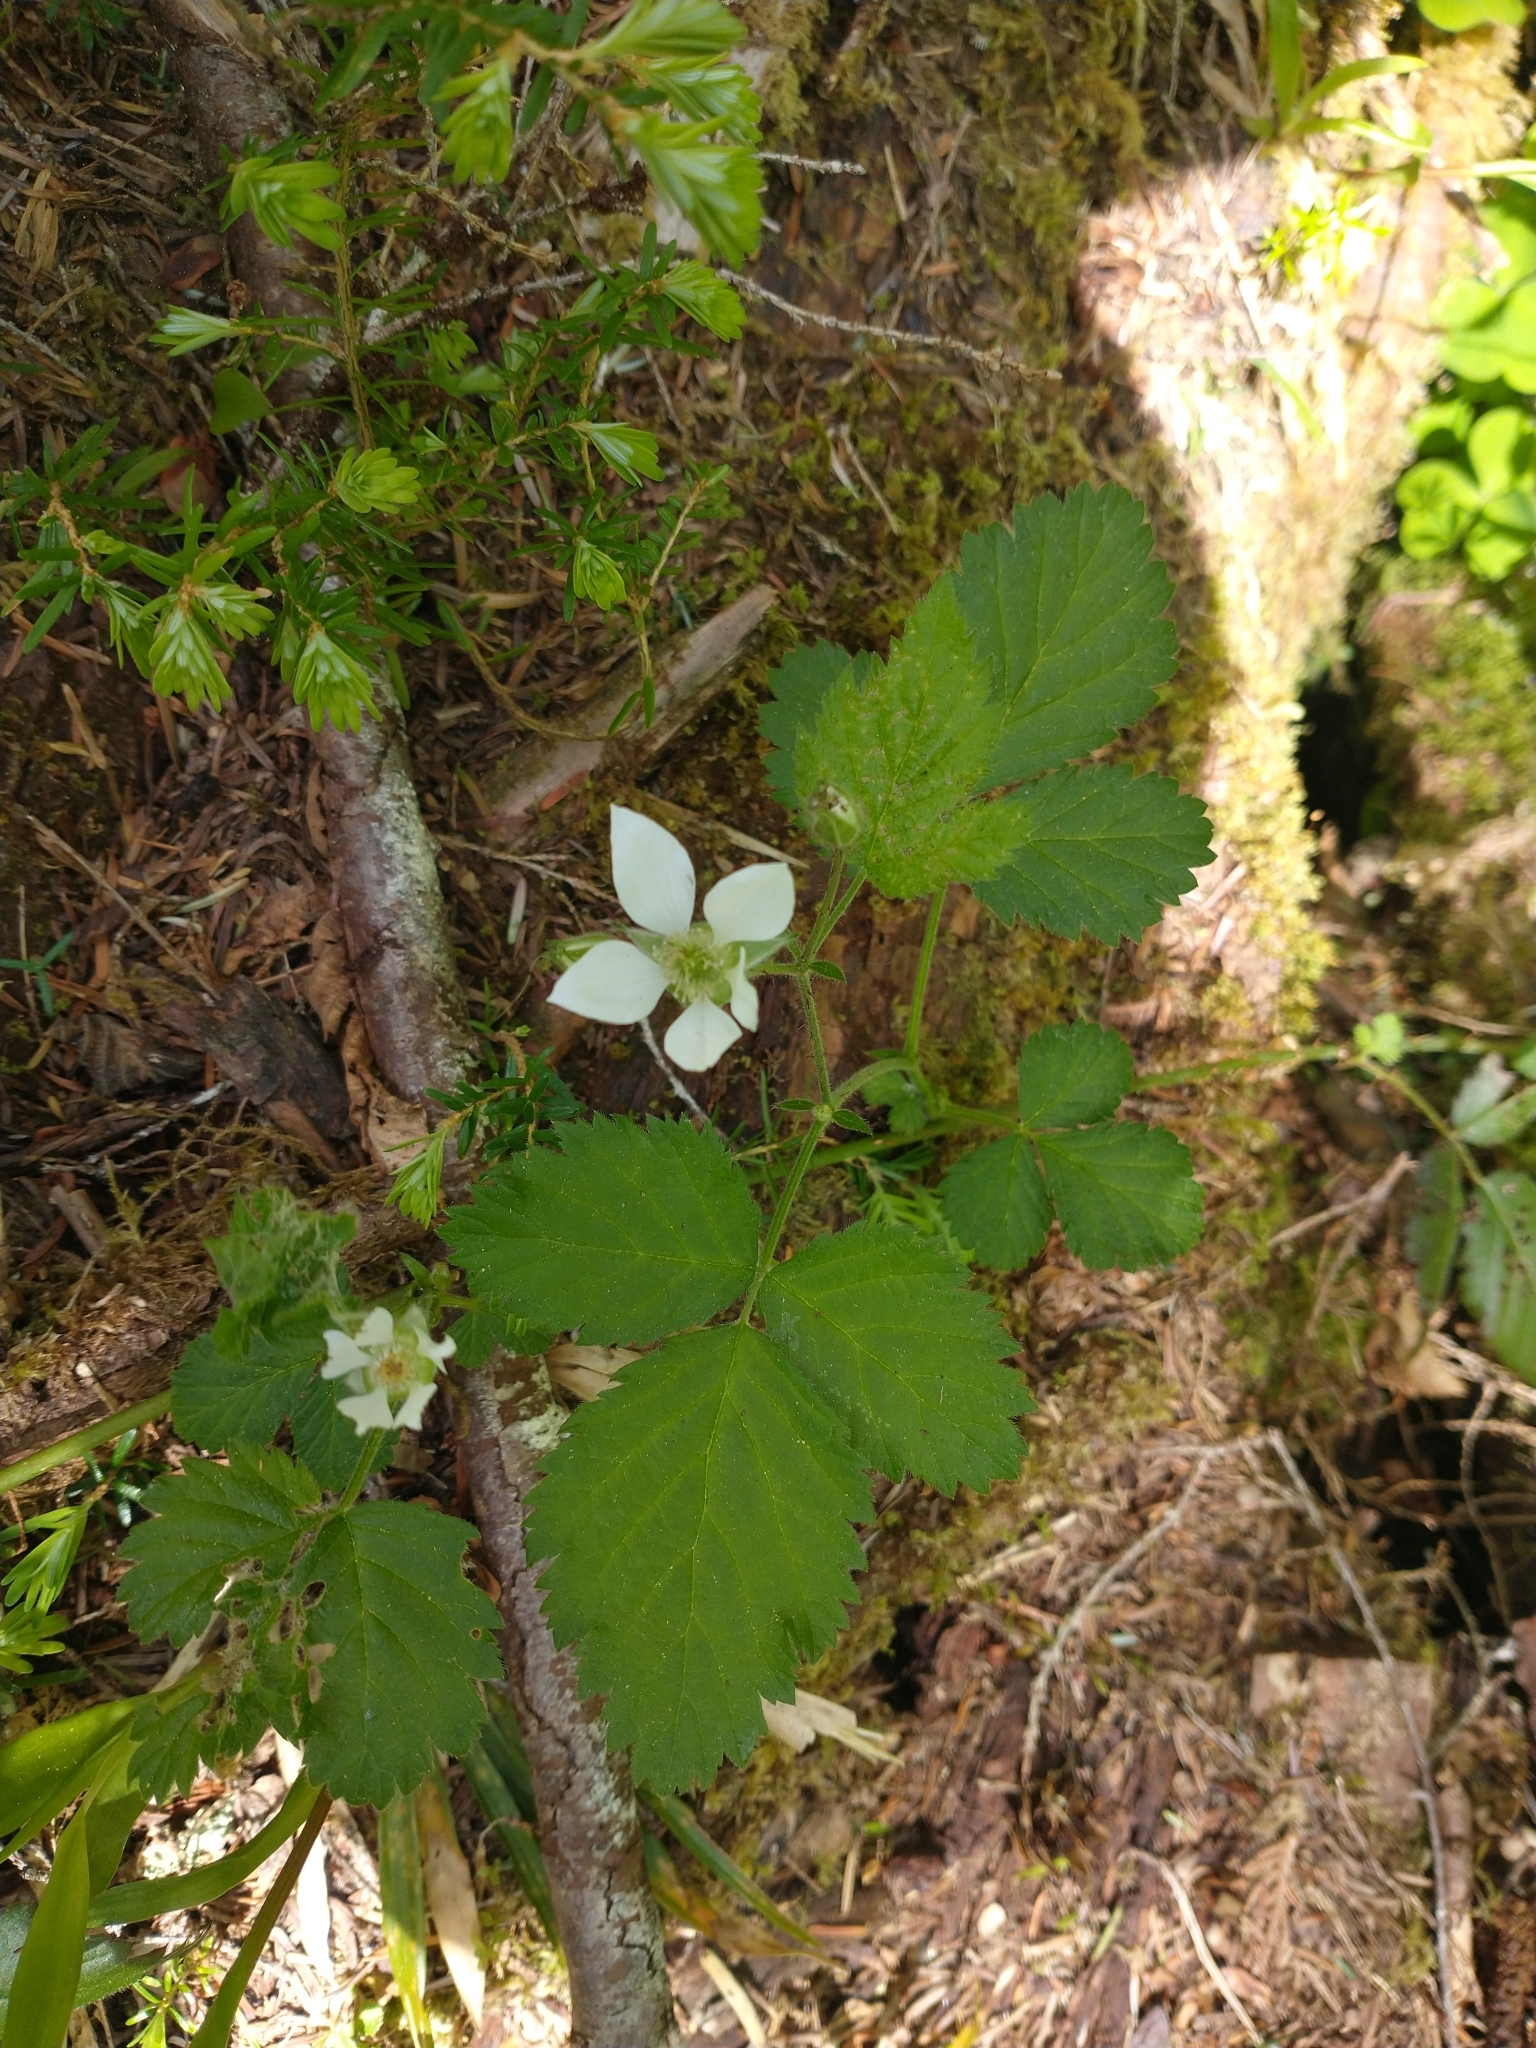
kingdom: Plantae
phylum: Tracheophyta
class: Magnoliopsida
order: Rosales
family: Rosaceae
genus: Rubus
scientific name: Rubus ursinus
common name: Pacific blackberry
